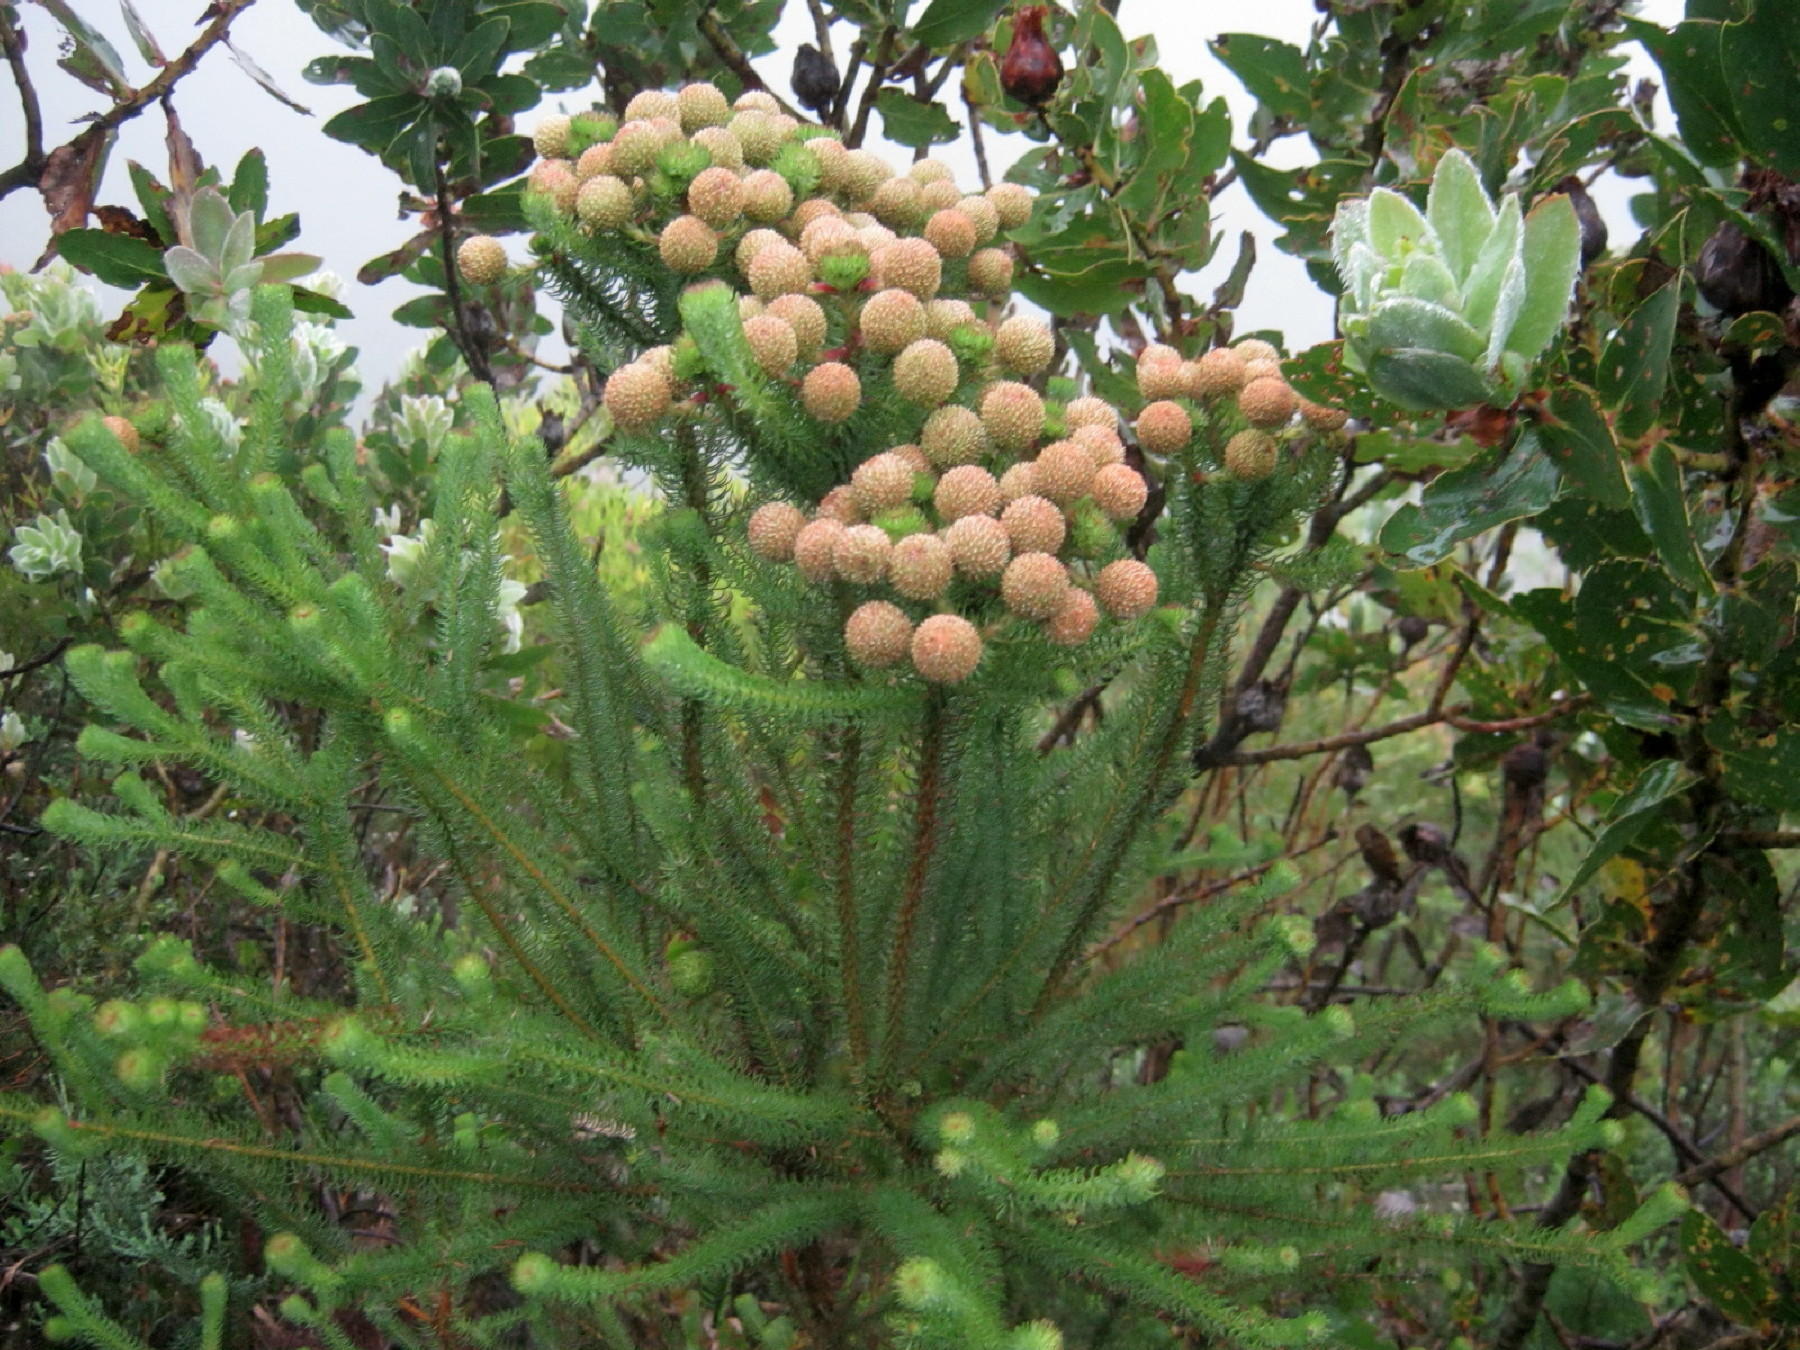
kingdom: Plantae
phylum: Tracheophyta
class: Magnoliopsida
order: Bruniales
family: Bruniaceae
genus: Berzelia
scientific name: Berzelia abrotanoides
